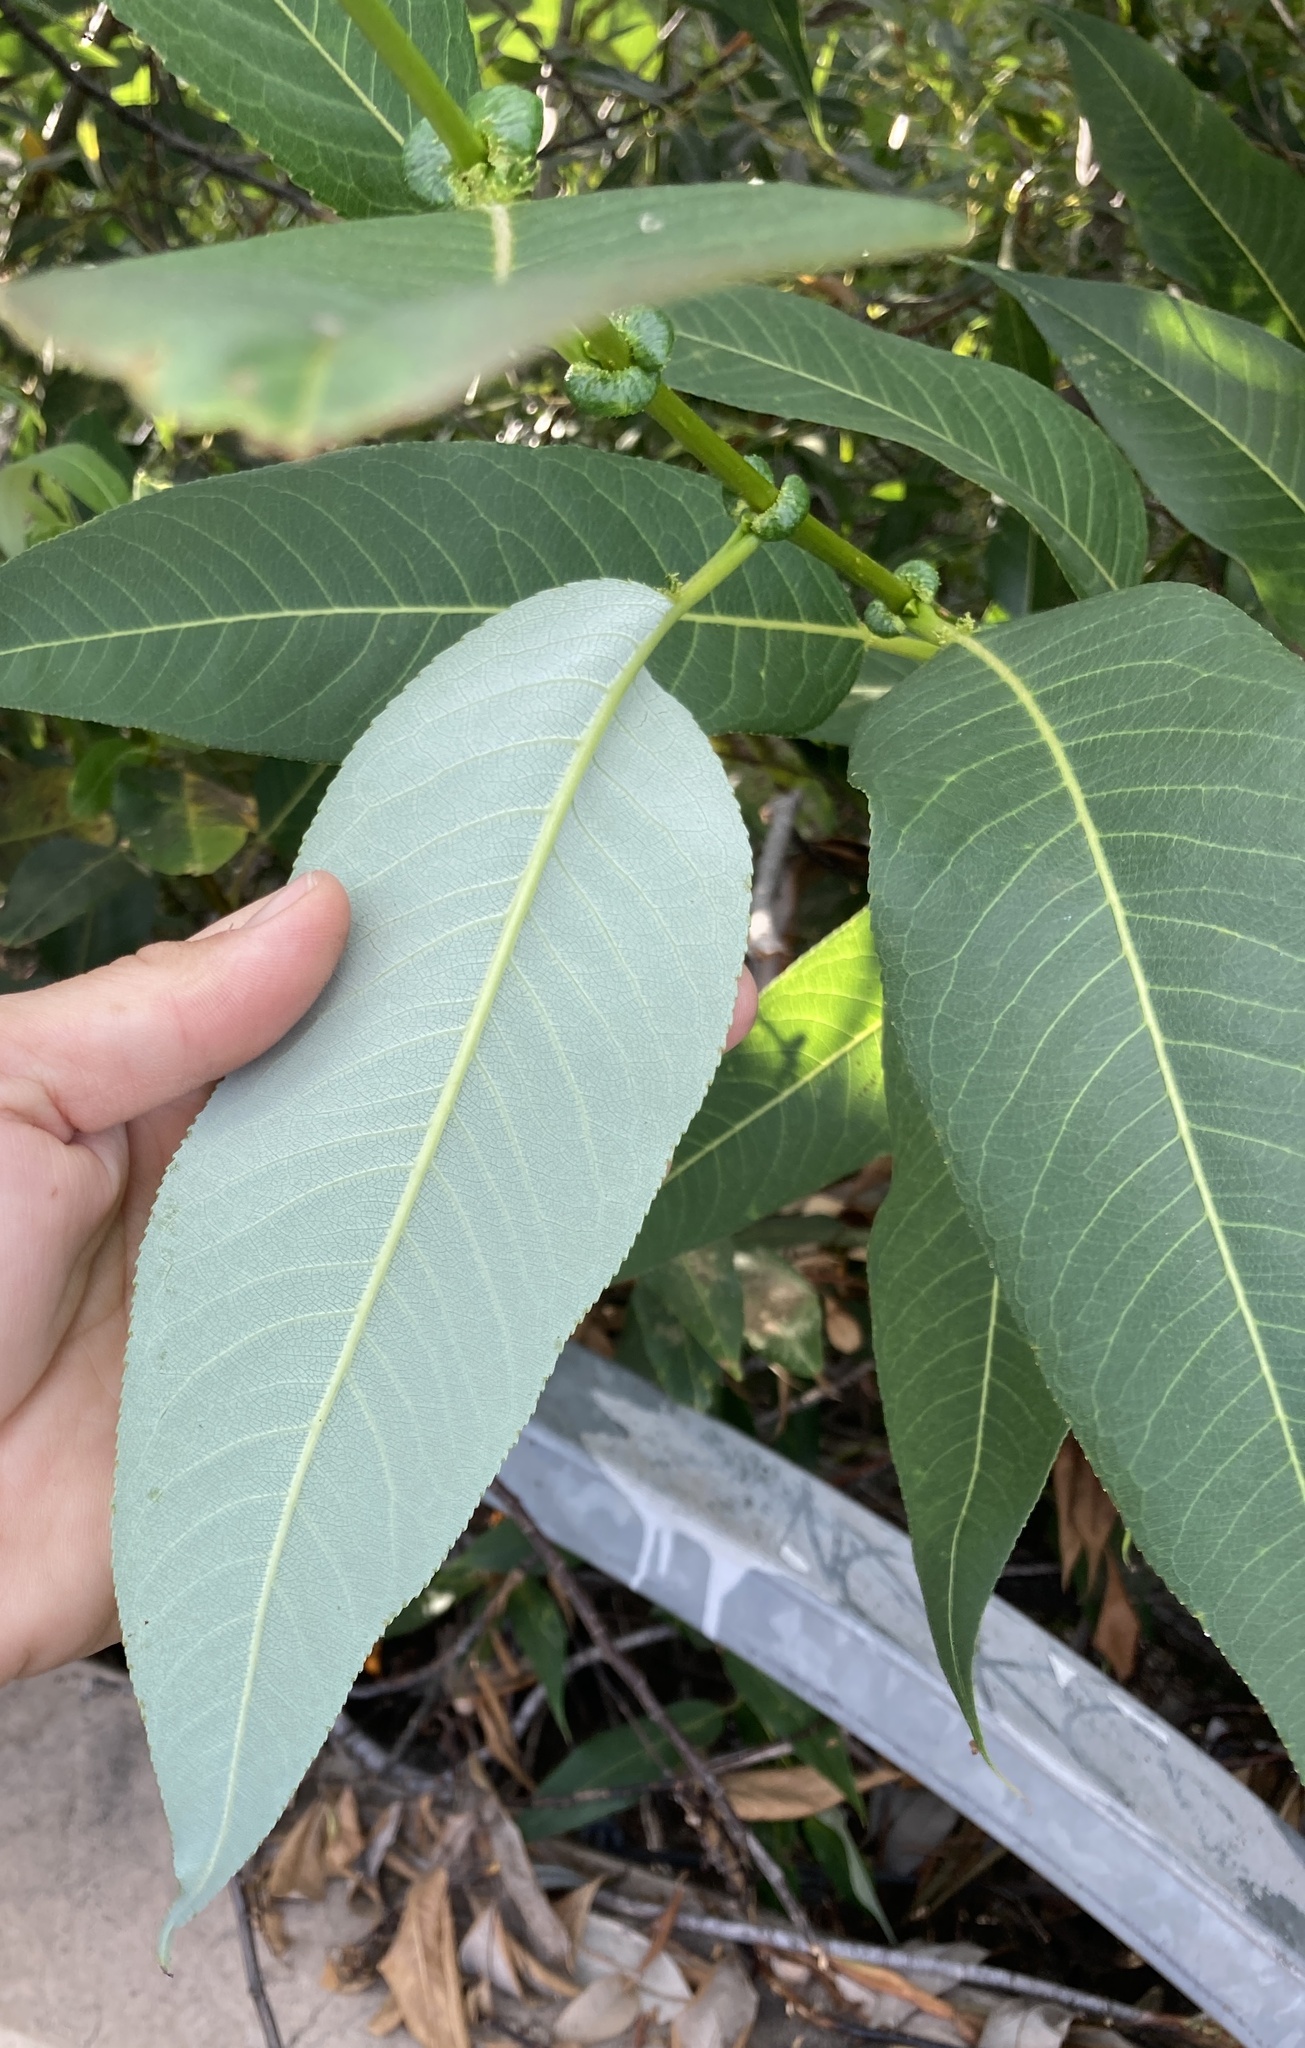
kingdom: Plantae
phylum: Tracheophyta
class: Magnoliopsida
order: Malpighiales
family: Salicaceae
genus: Salix
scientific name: Salix lucida
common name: Shining willow
